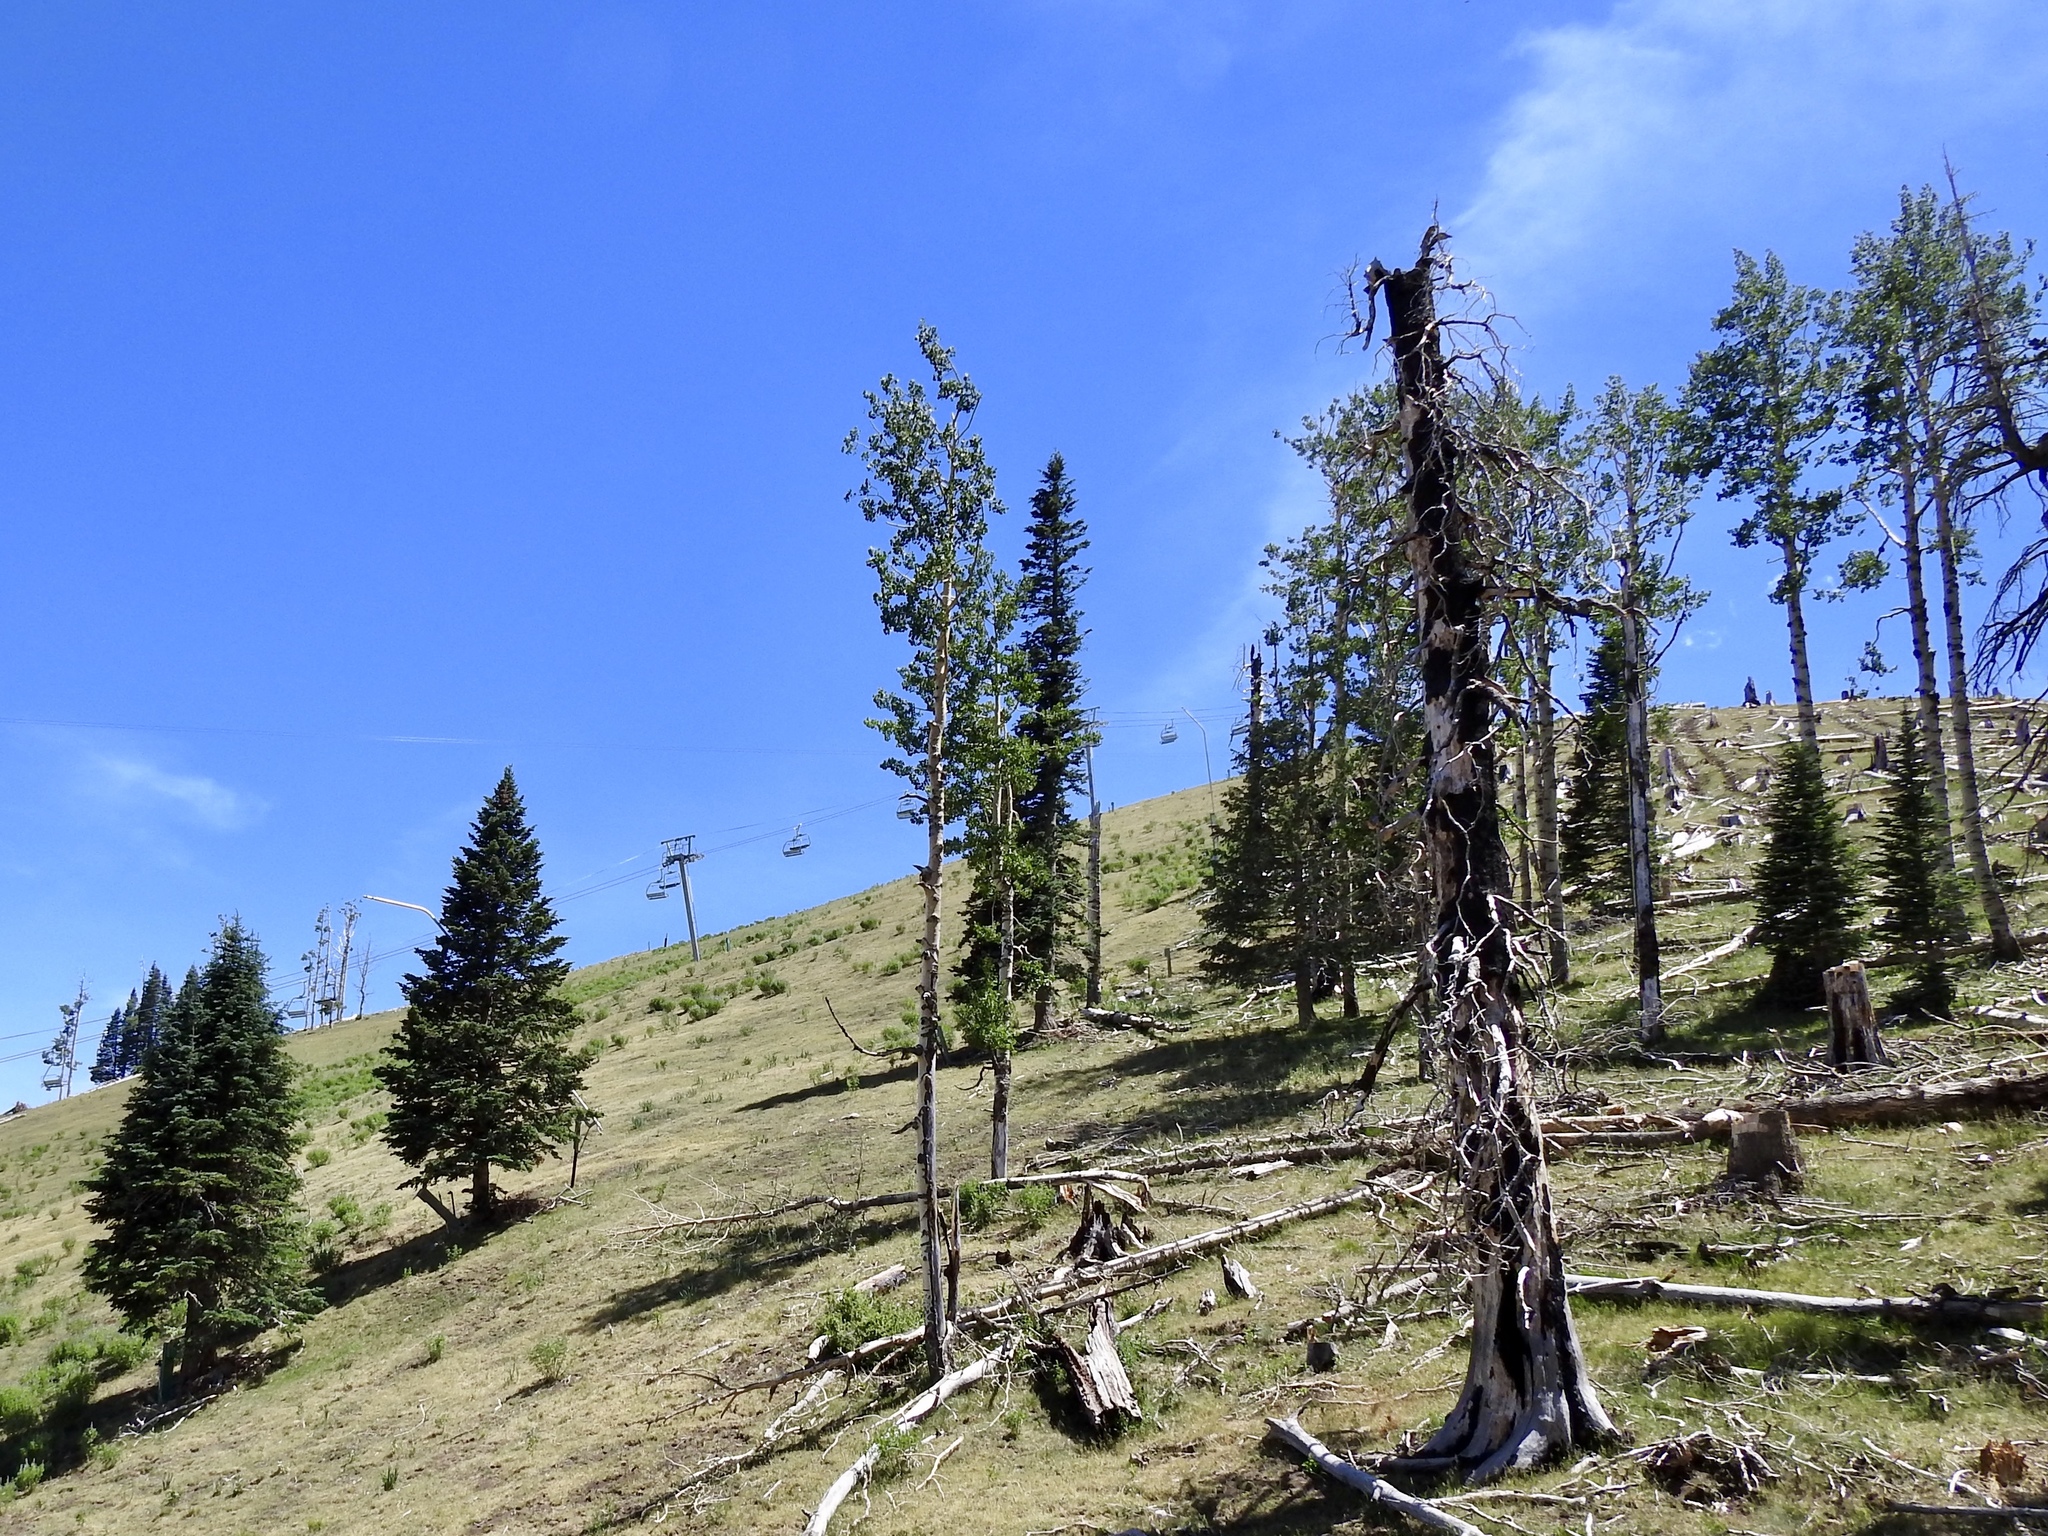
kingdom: Plantae
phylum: Tracheophyta
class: Pinopsida
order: Pinales
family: Pinaceae
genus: Picea
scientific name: Picea engelmannii
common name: Engelmann spruce
